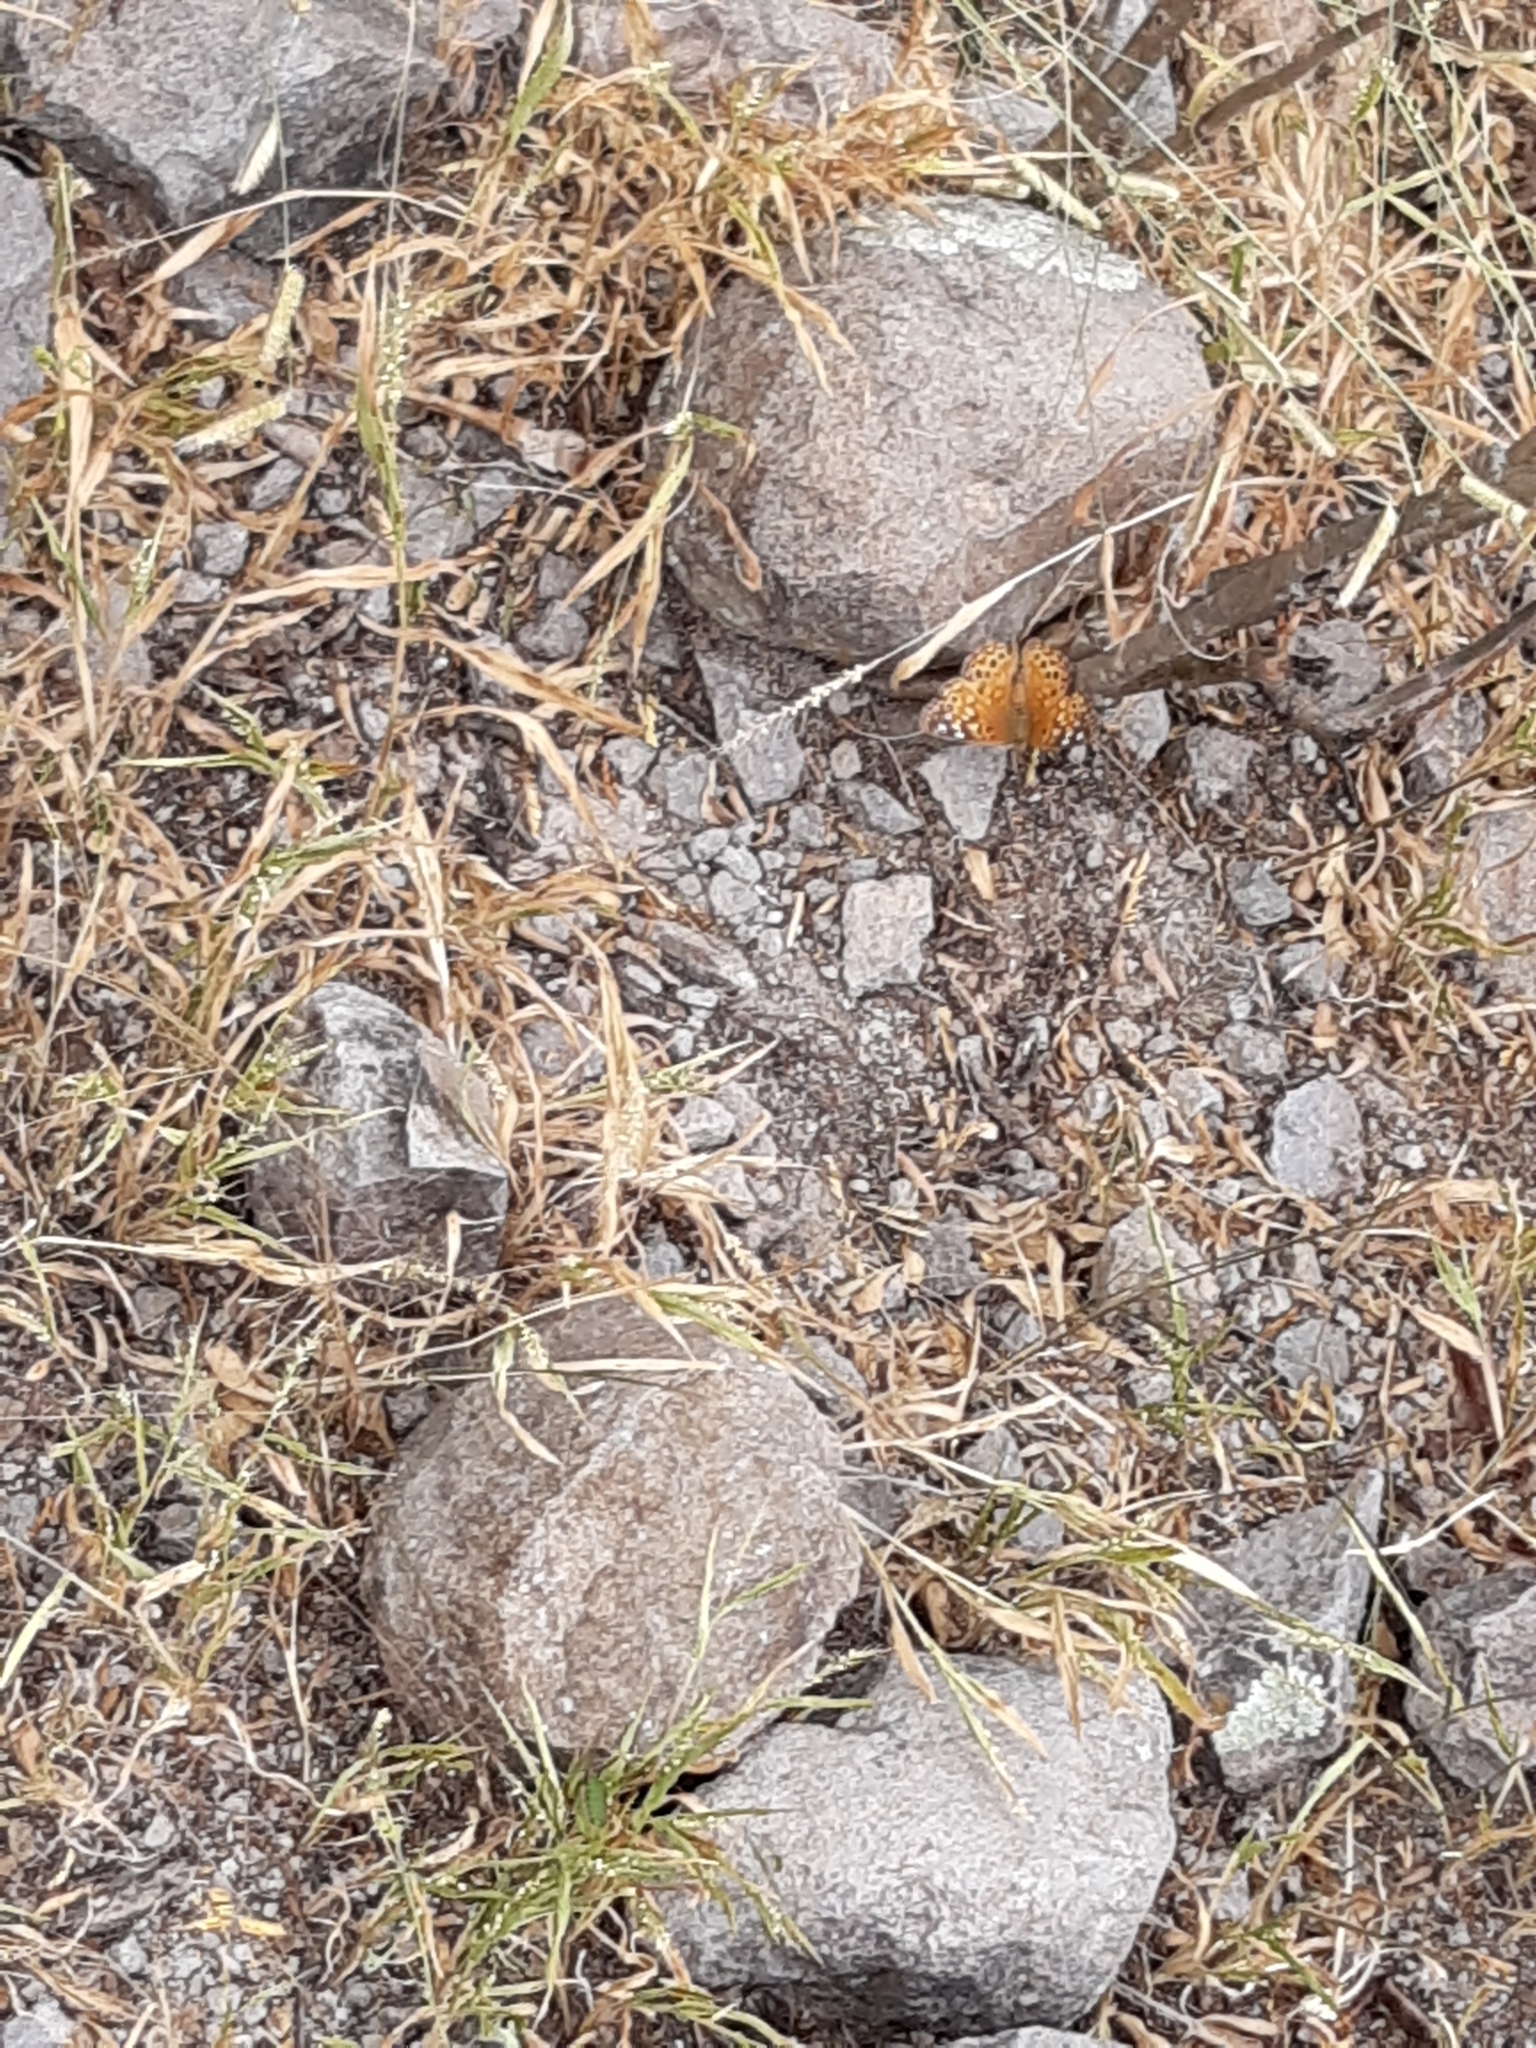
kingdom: Animalia
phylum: Arthropoda
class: Insecta
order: Lepidoptera
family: Nymphalidae
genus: Asterocampa
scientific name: Asterocampa leilia
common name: Empress leilia
